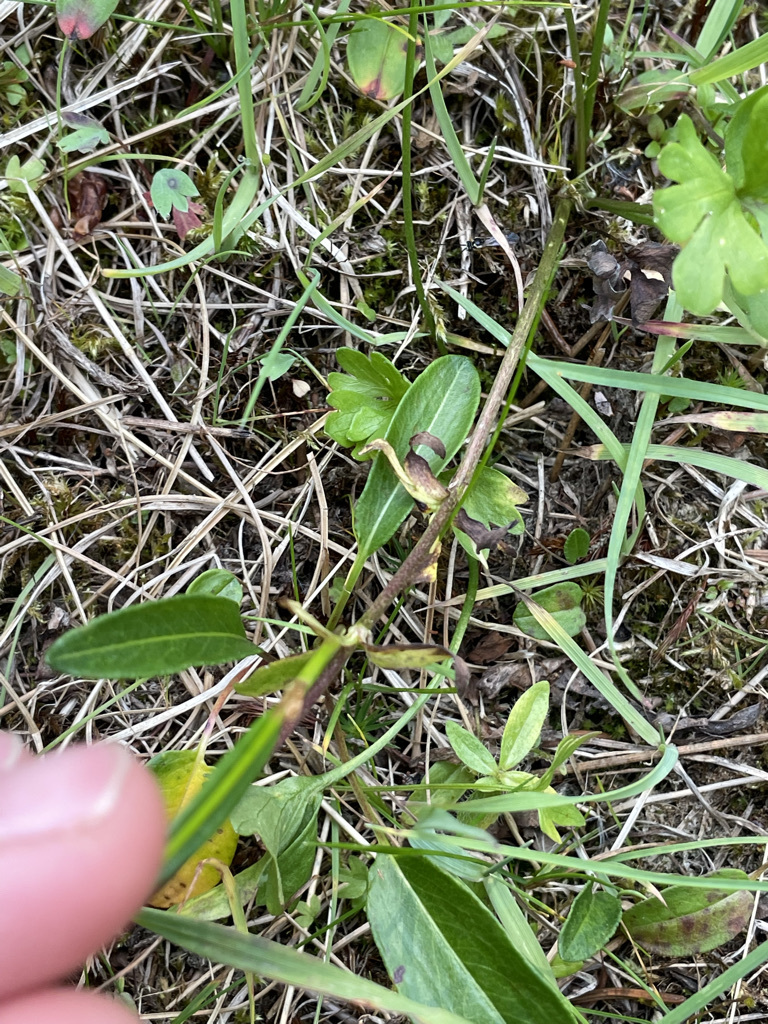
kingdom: Plantae
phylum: Tracheophyta
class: Magnoliopsida
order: Caryophyllales
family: Polygonaceae
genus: Bistorta
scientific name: Bistorta vivipara
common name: Alpine bistort
